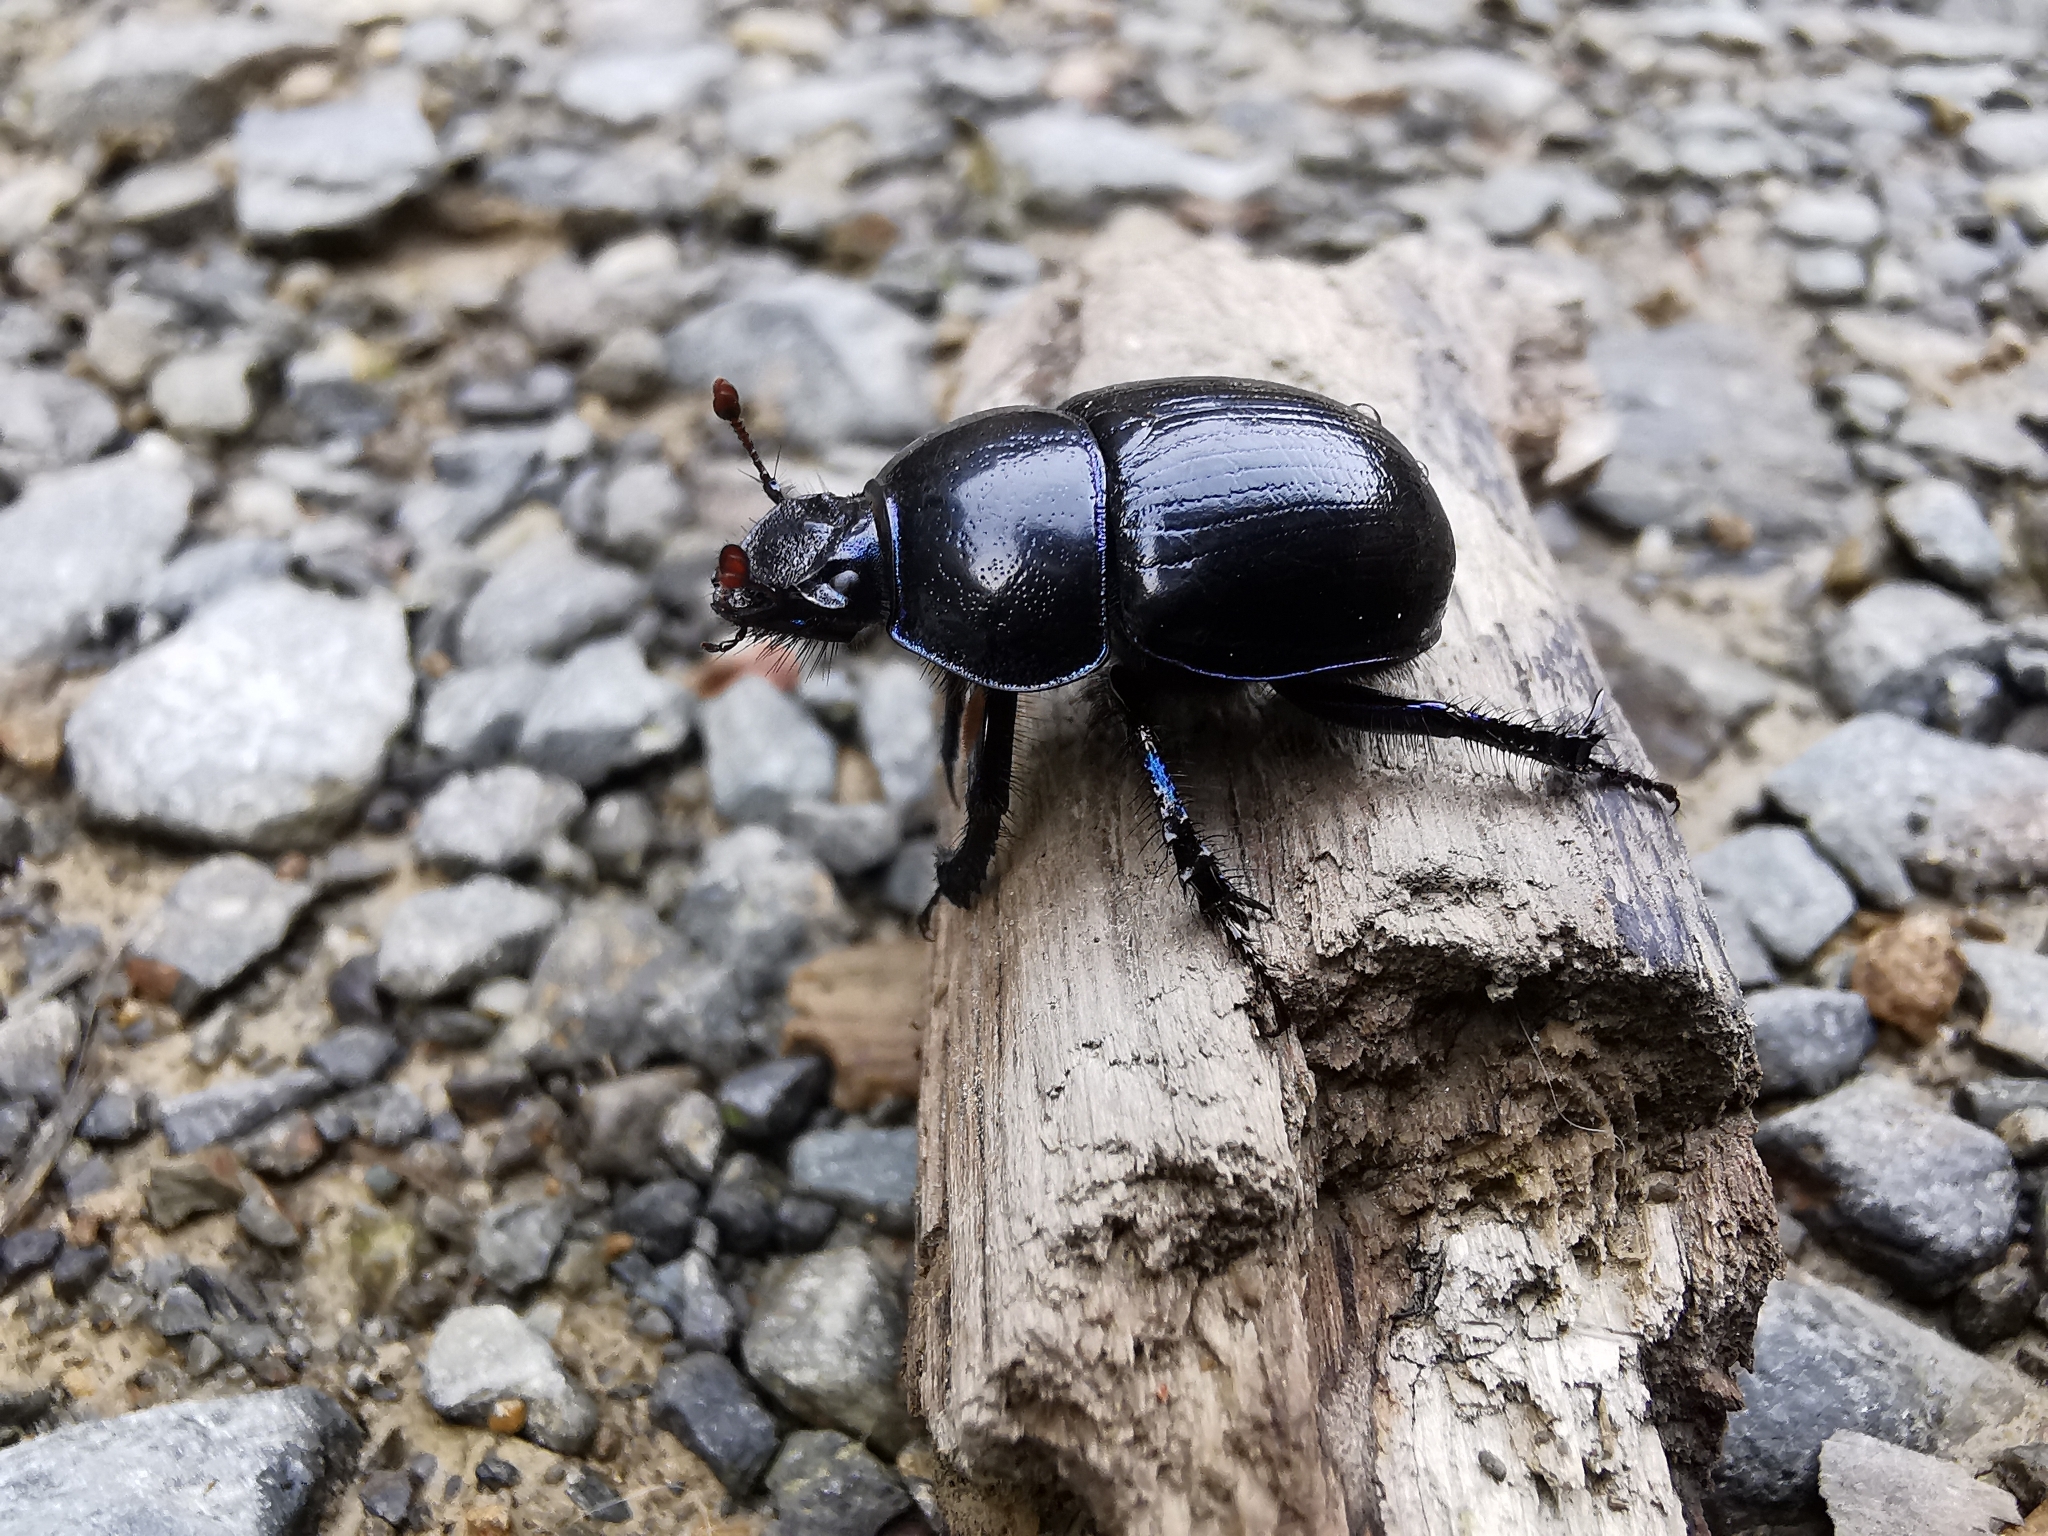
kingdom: Animalia
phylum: Arthropoda
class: Insecta
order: Coleoptera
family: Geotrupidae
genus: Anoplotrupes
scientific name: Anoplotrupes stercorosus
